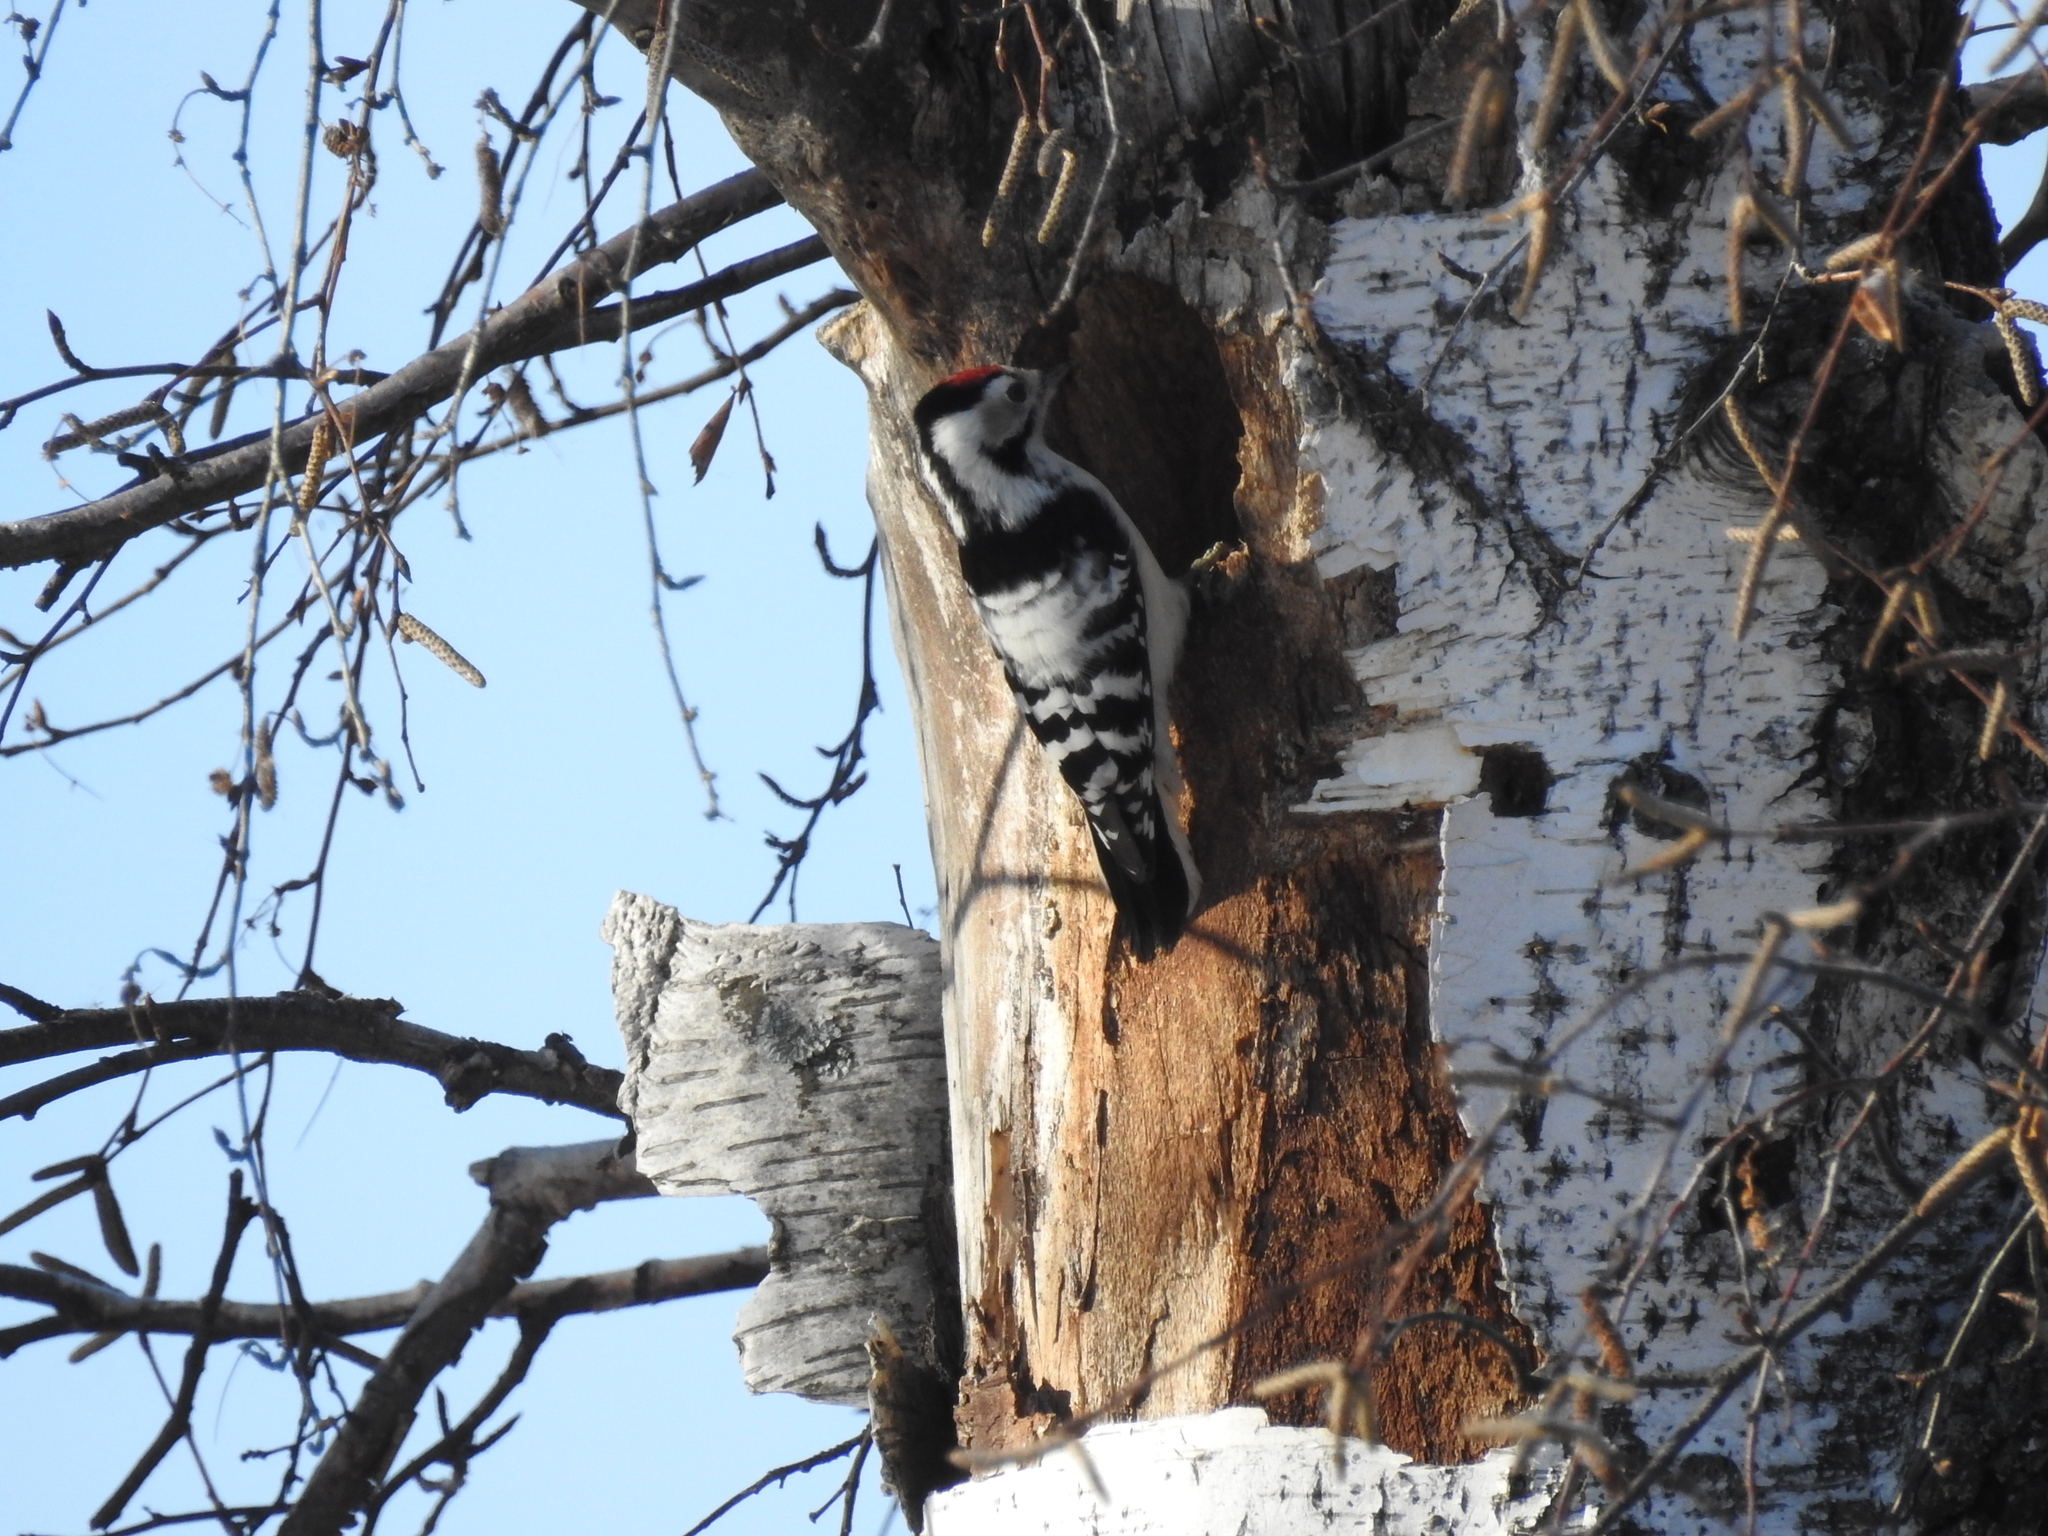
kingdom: Animalia
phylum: Chordata
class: Aves
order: Piciformes
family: Picidae
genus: Dryobates
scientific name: Dryobates minor
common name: Lesser spotted woodpecker
